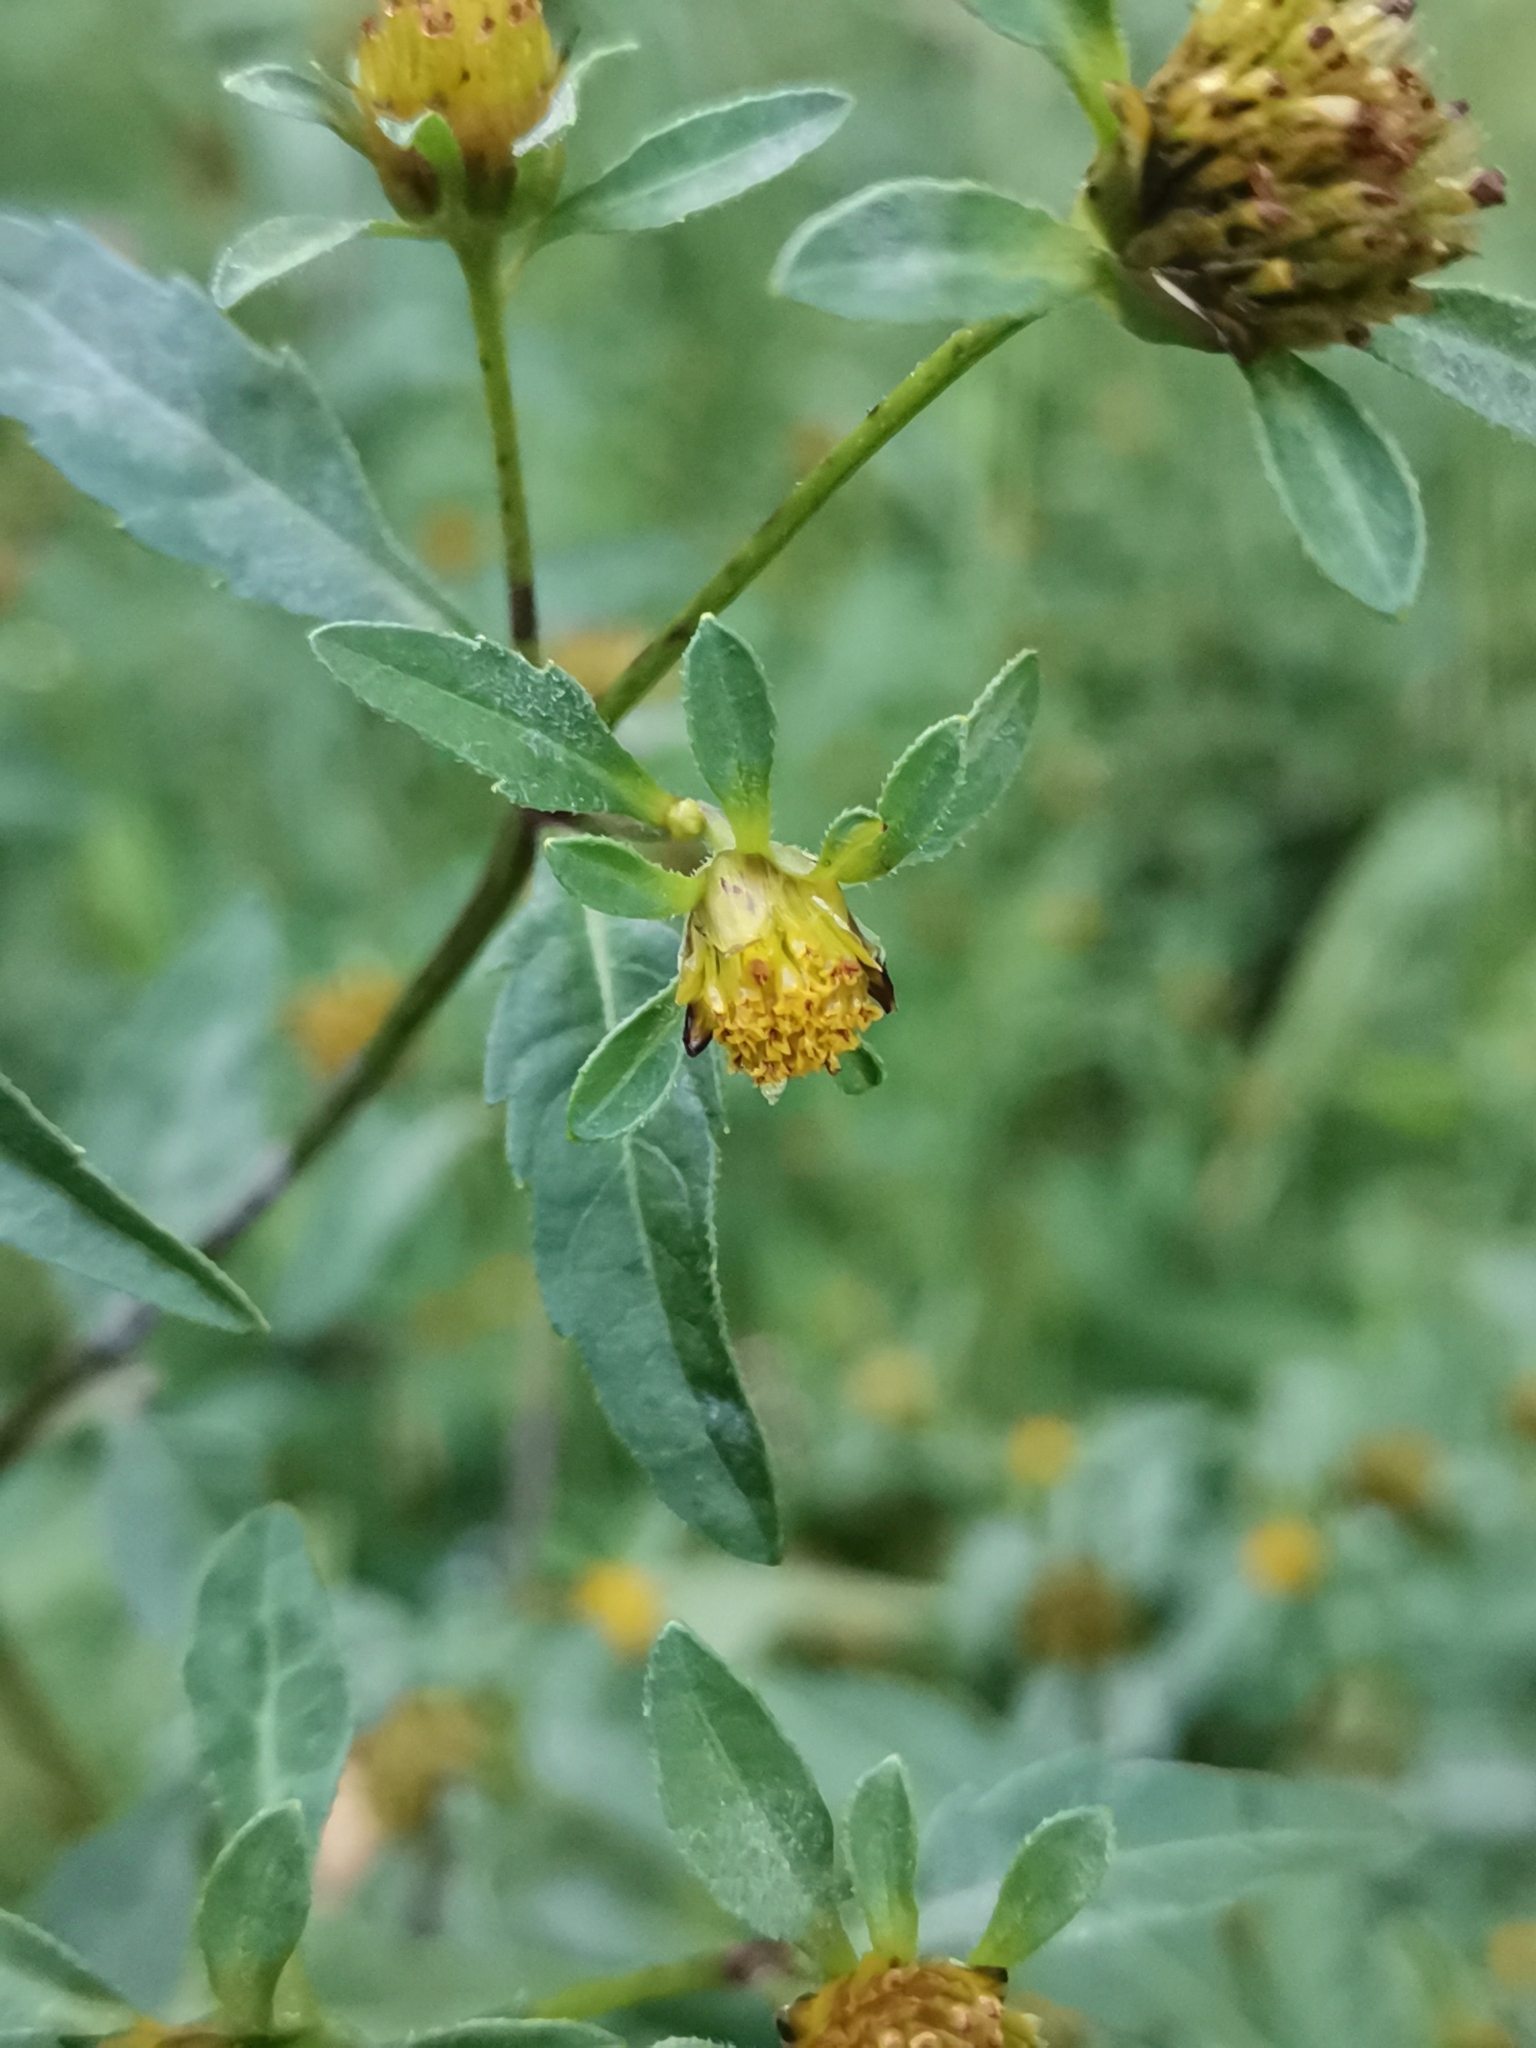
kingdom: Plantae
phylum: Tracheophyta
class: Magnoliopsida
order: Asterales
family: Asteraceae
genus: Bidens
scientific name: Bidens tripartita
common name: Trifid bur-marigold
